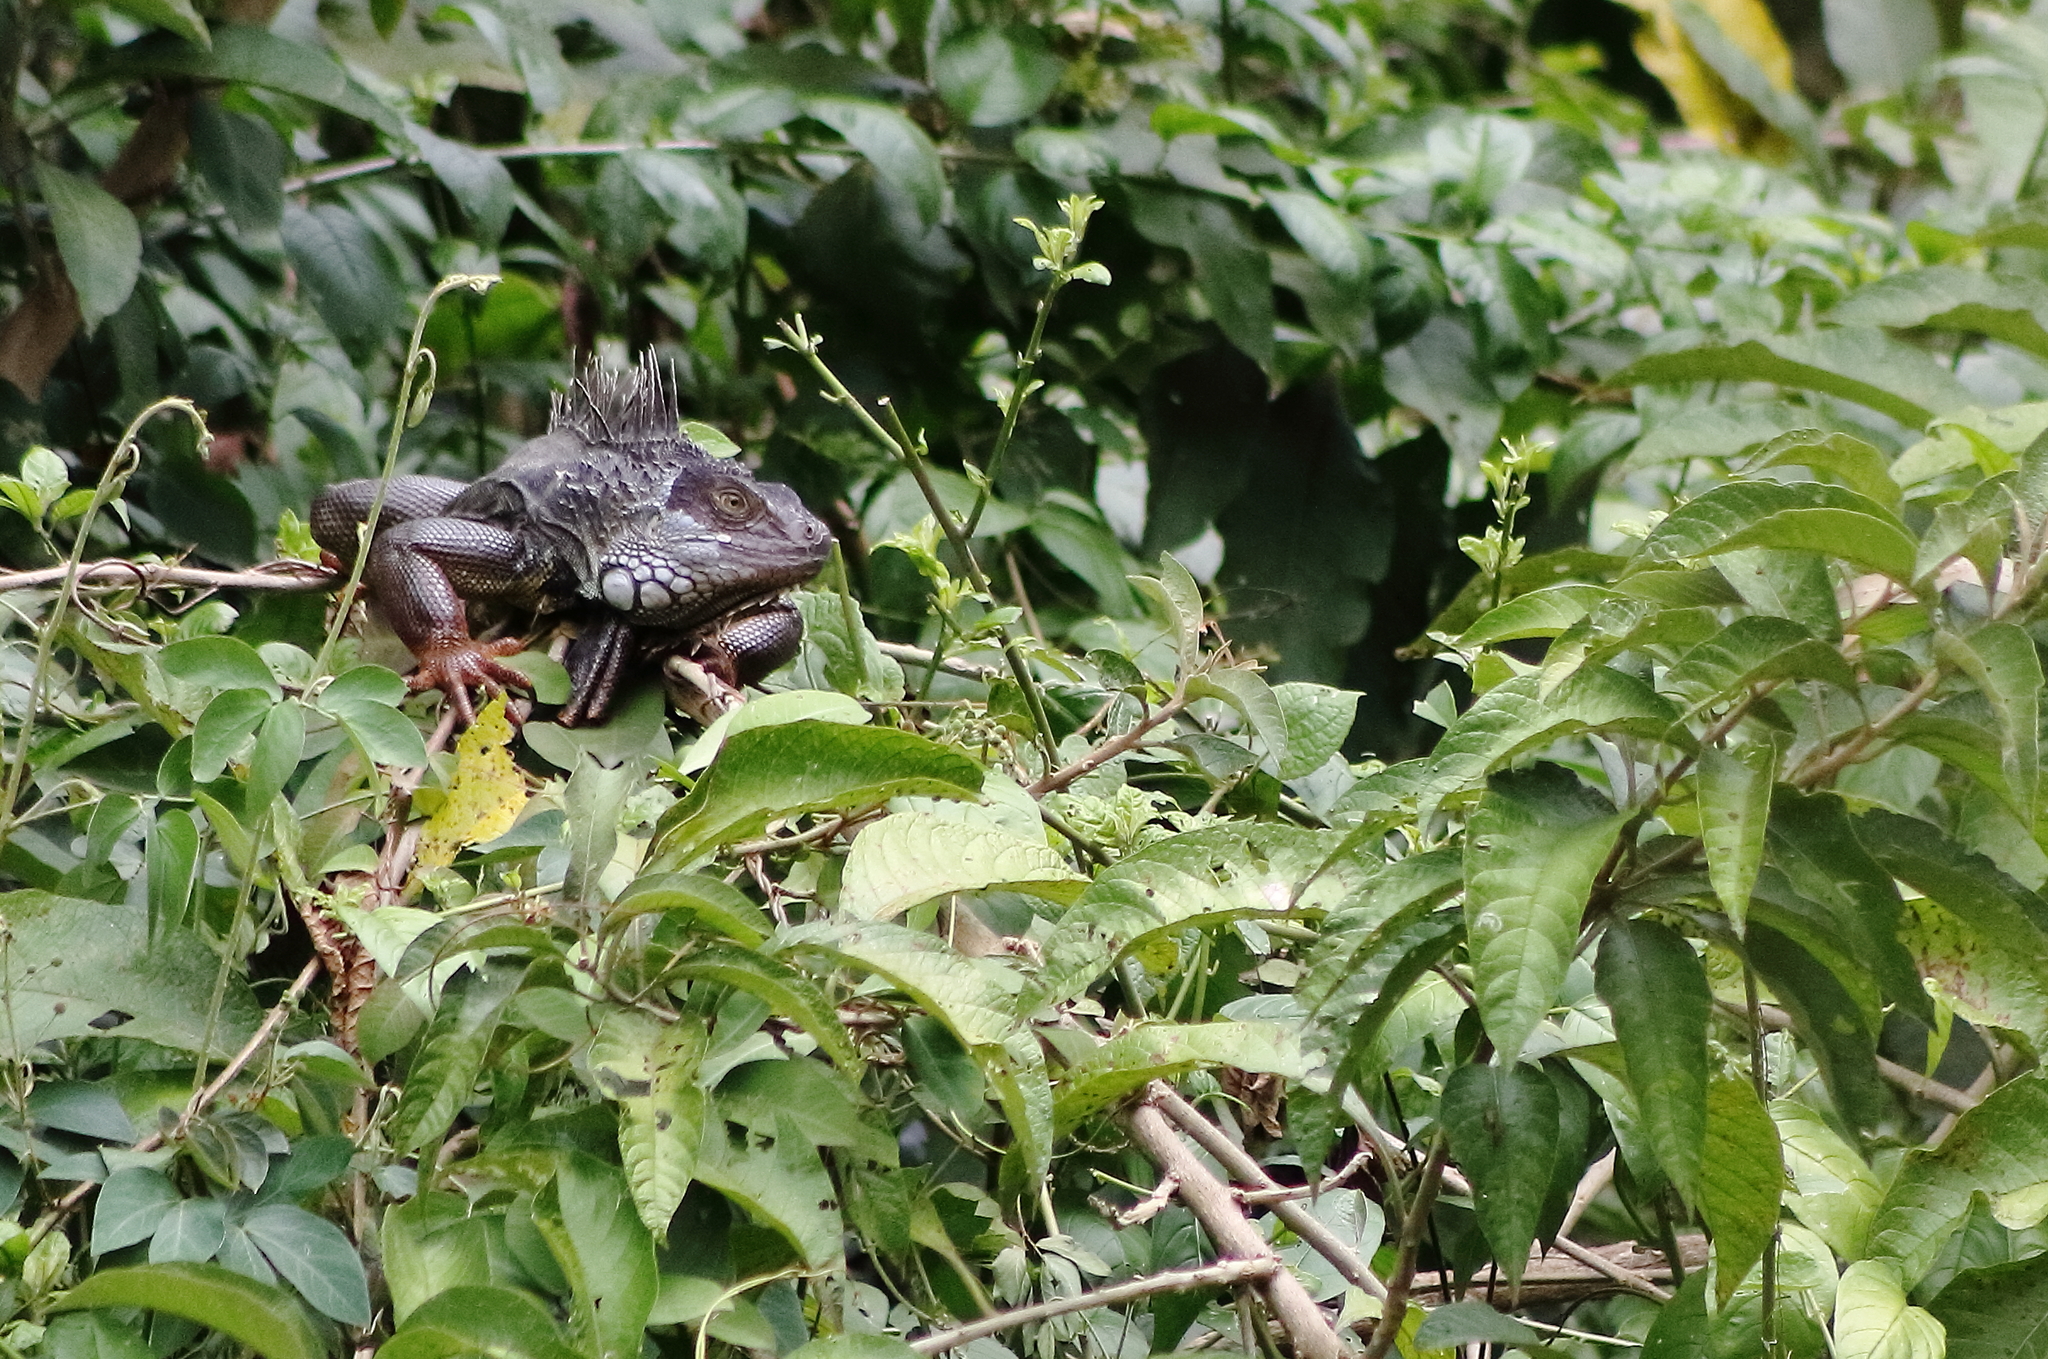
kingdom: Animalia
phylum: Chordata
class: Squamata
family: Iguanidae
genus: Iguana
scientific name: Iguana iguana
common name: Green iguana
